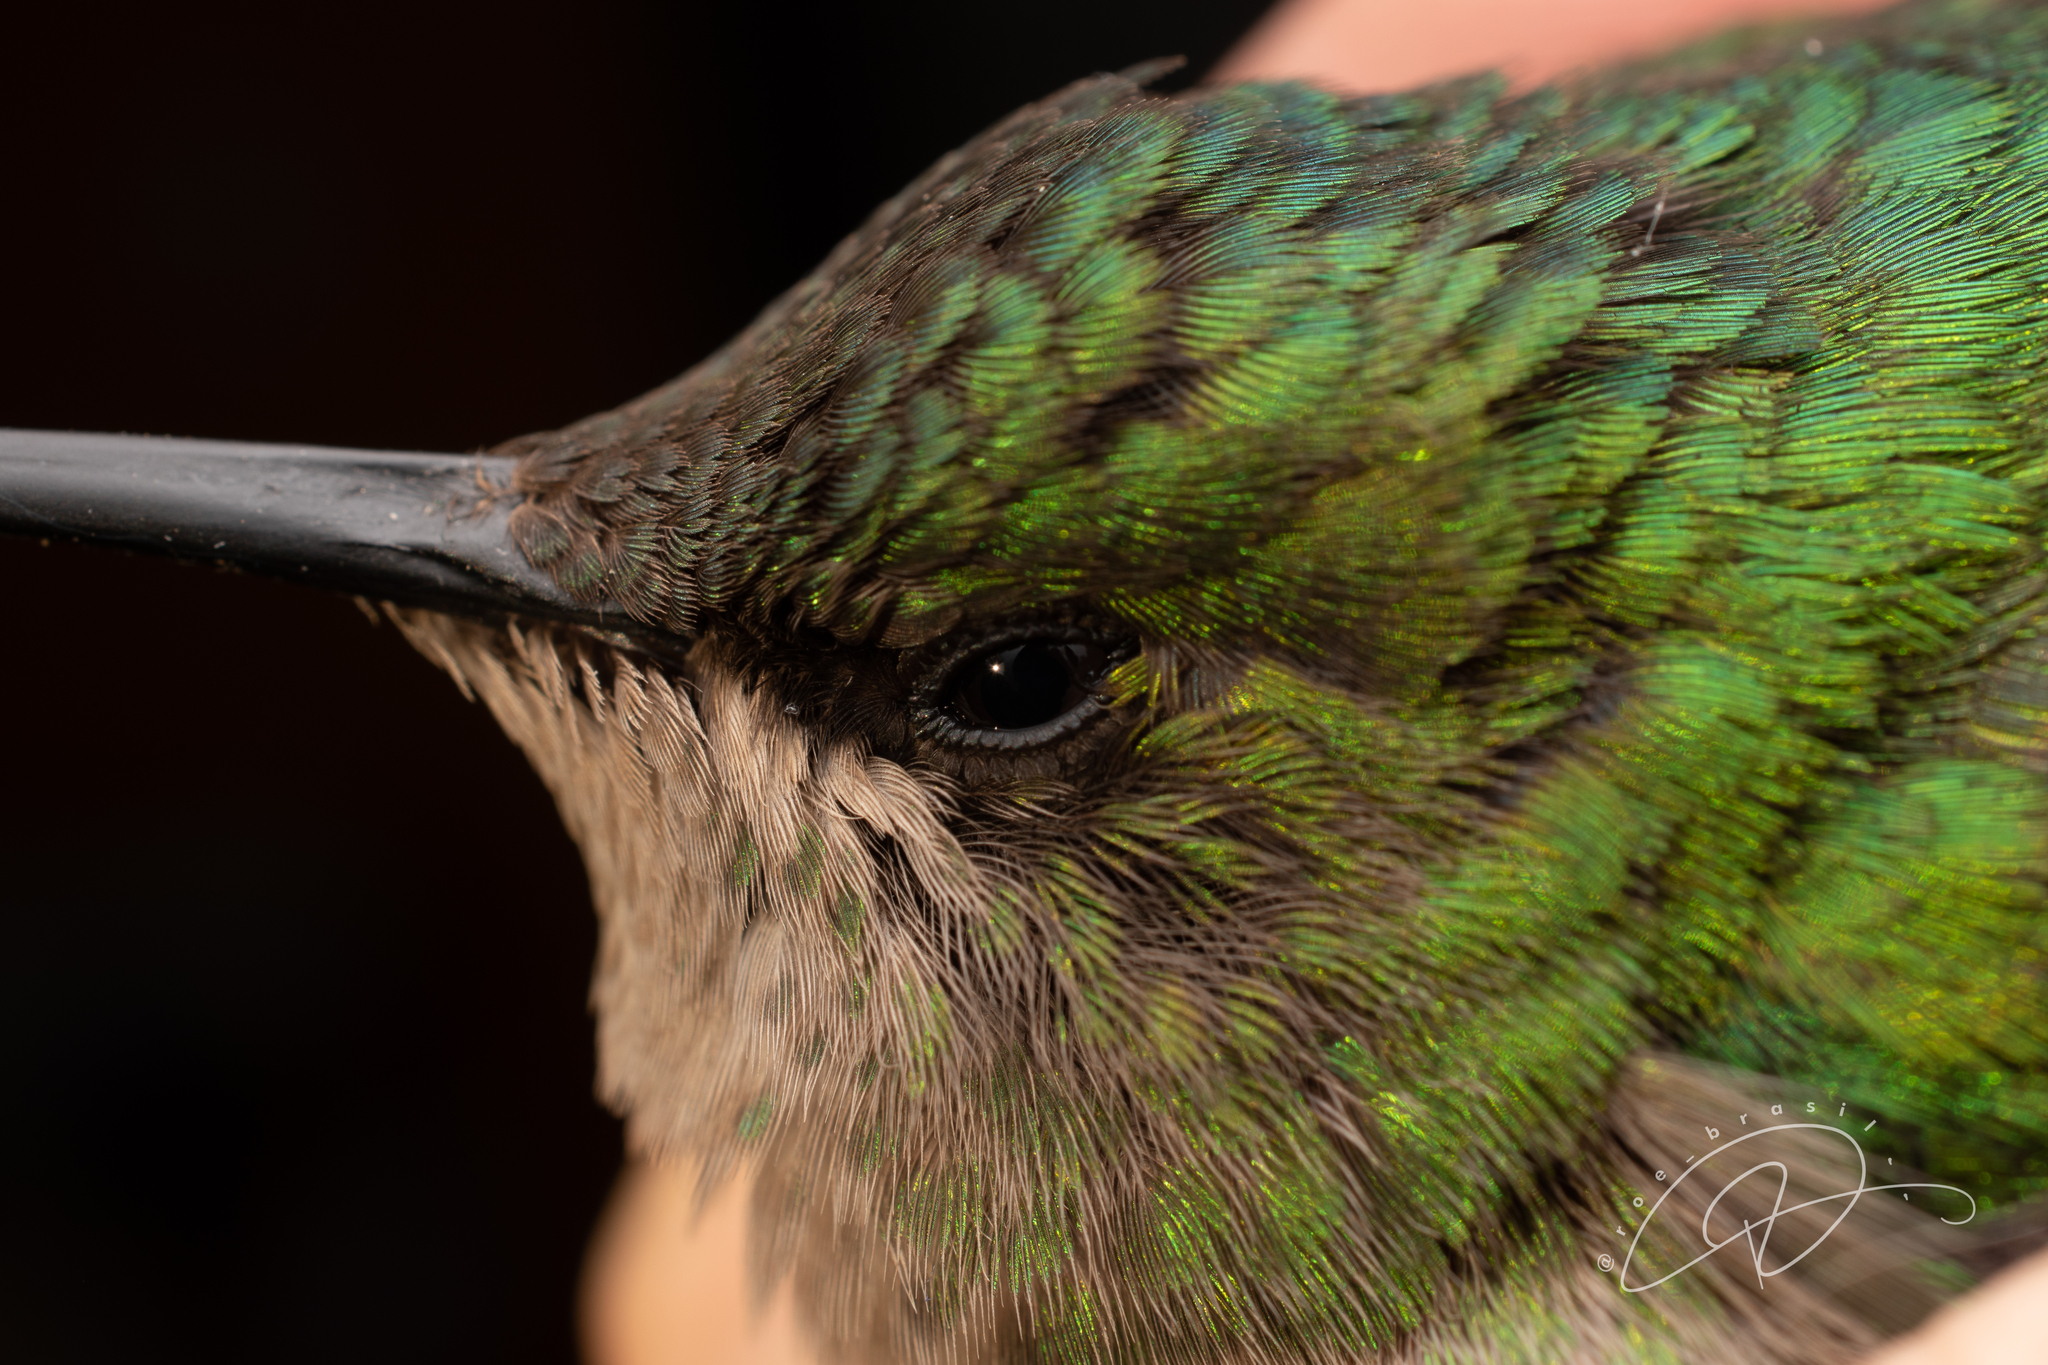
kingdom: Animalia
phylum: Chordata
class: Aves
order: Apodiformes
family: Trochilidae
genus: Thalurania
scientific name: Thalurania glaucopis
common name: Violet-capped woodnymph
